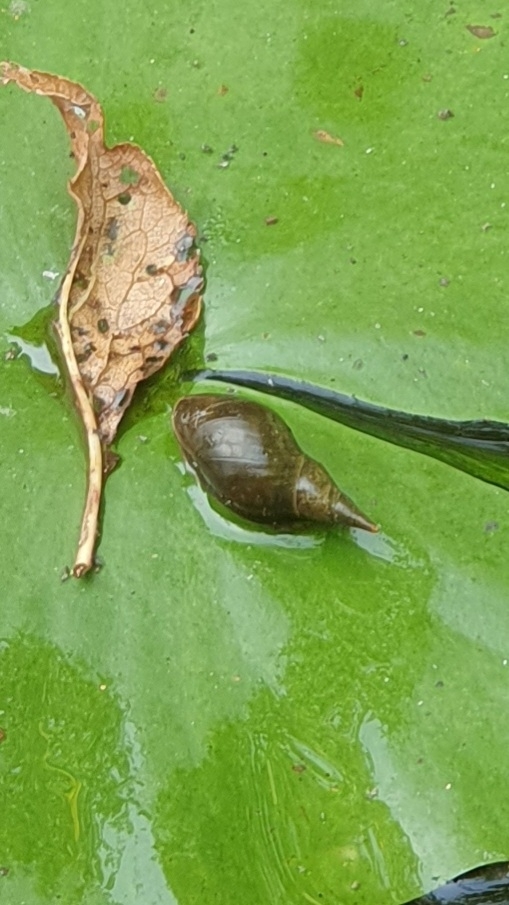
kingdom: Animalia
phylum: Mollusca
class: Gastropoda
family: Lymnaeidae
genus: Lymnaea
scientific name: Lymnaea stagnalis
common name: Great pond snail
